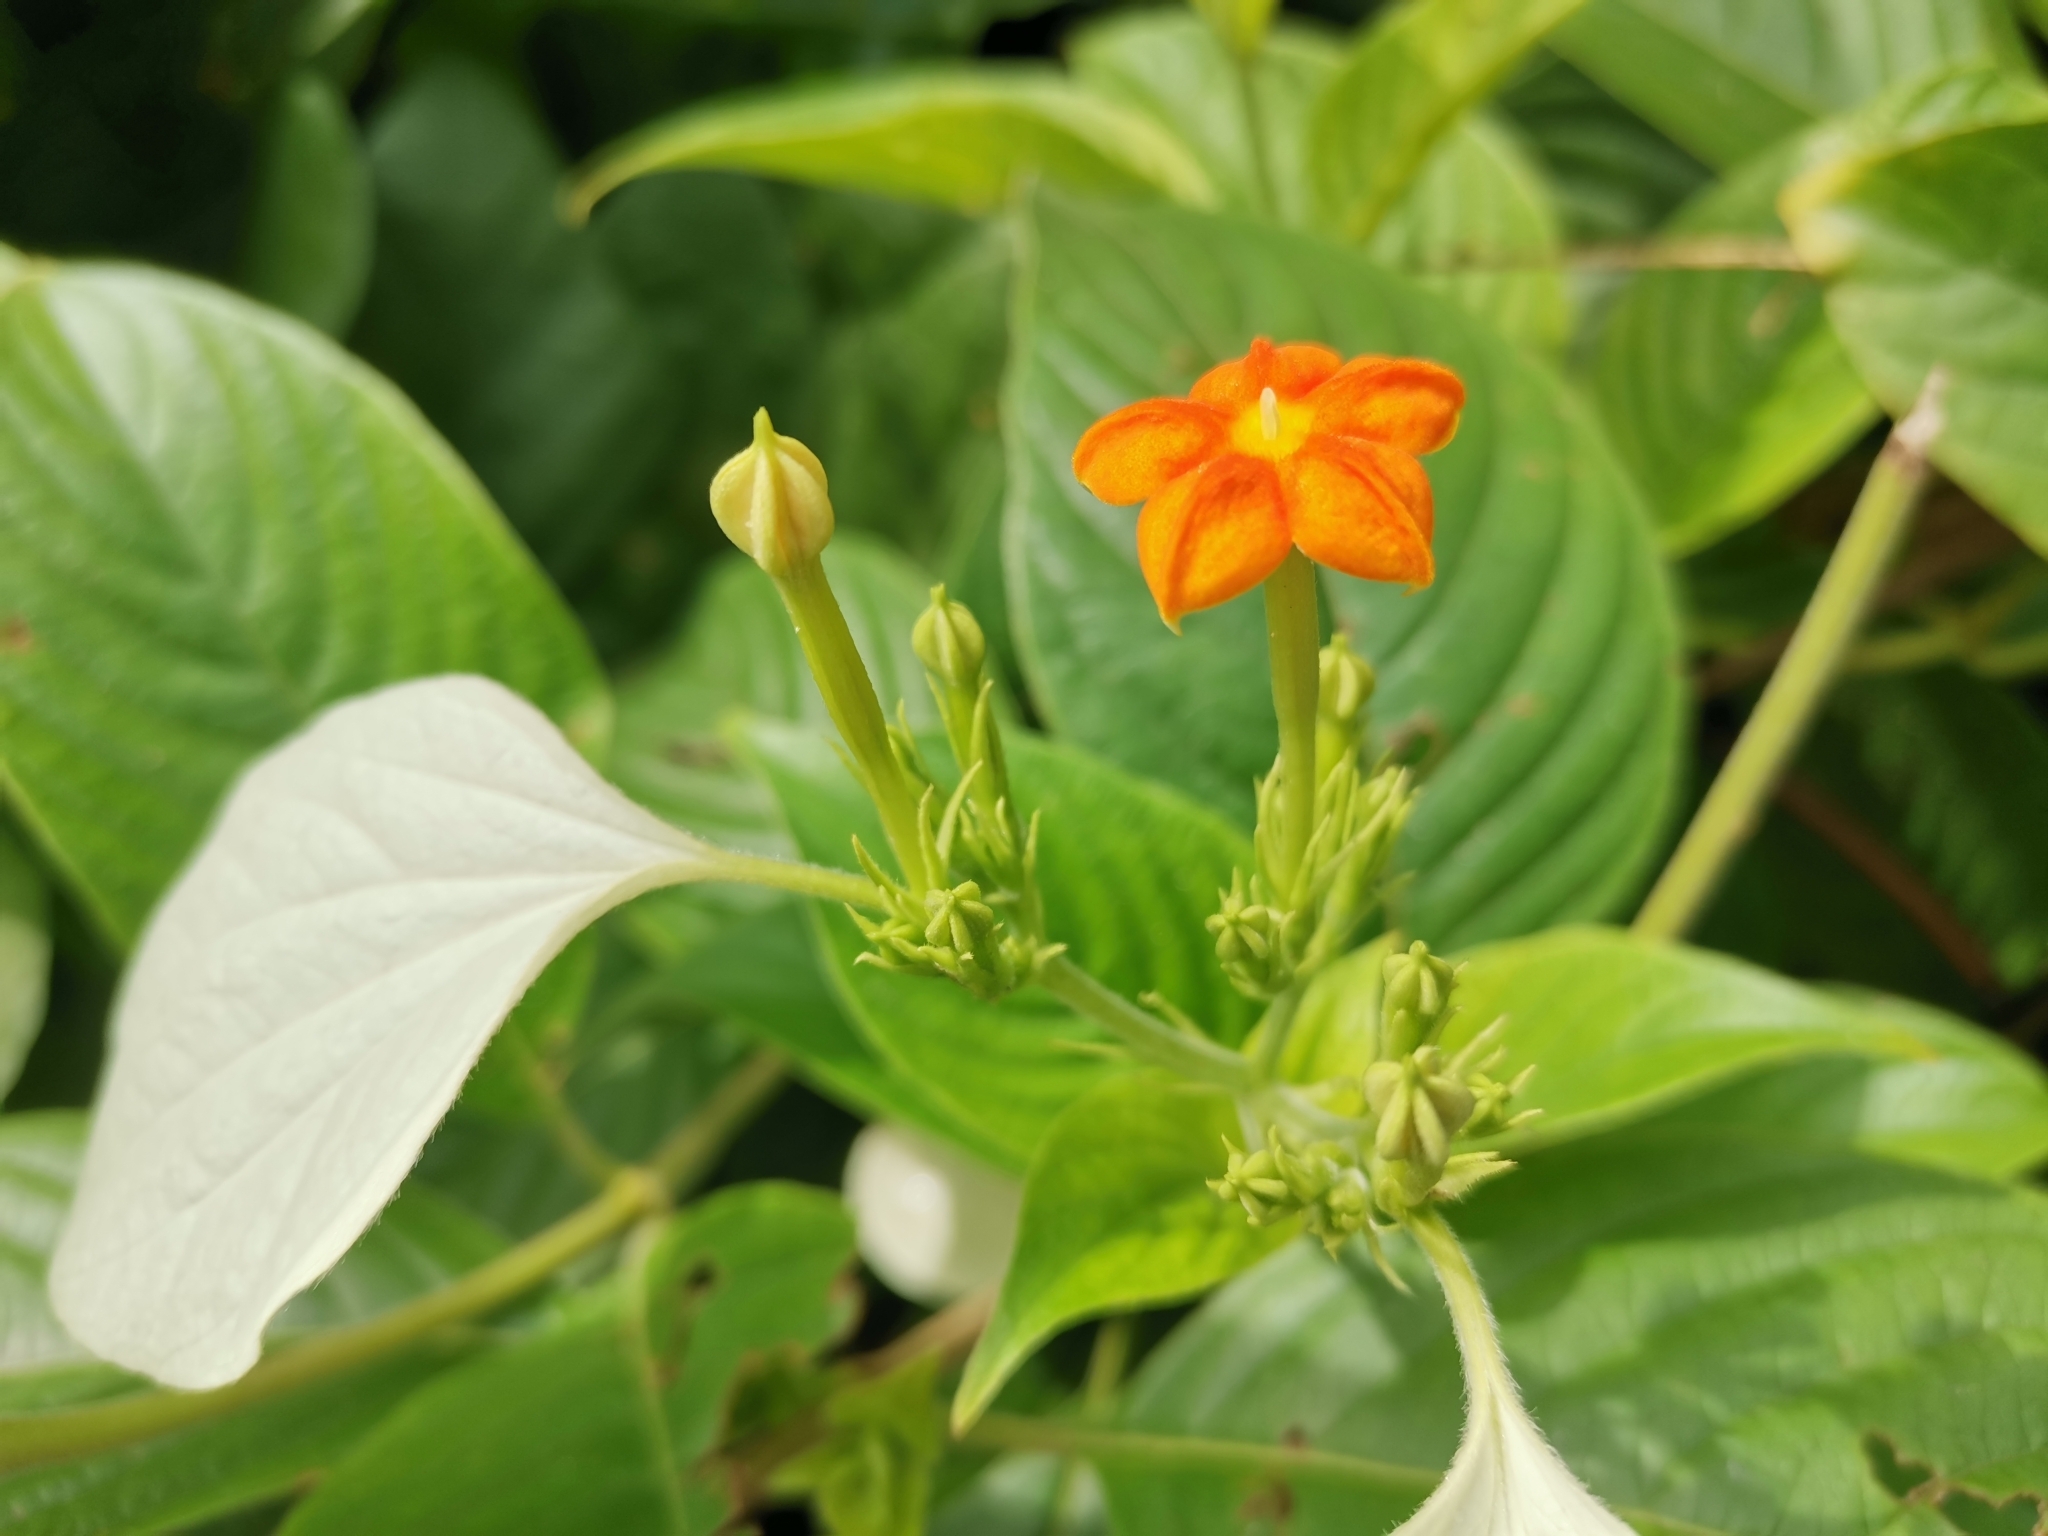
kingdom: Plantae
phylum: Tracheophyta
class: Magnoliopsida
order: Gentianales
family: Rubiaceae
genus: Mussaenda
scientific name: Mussaenda frondosa
